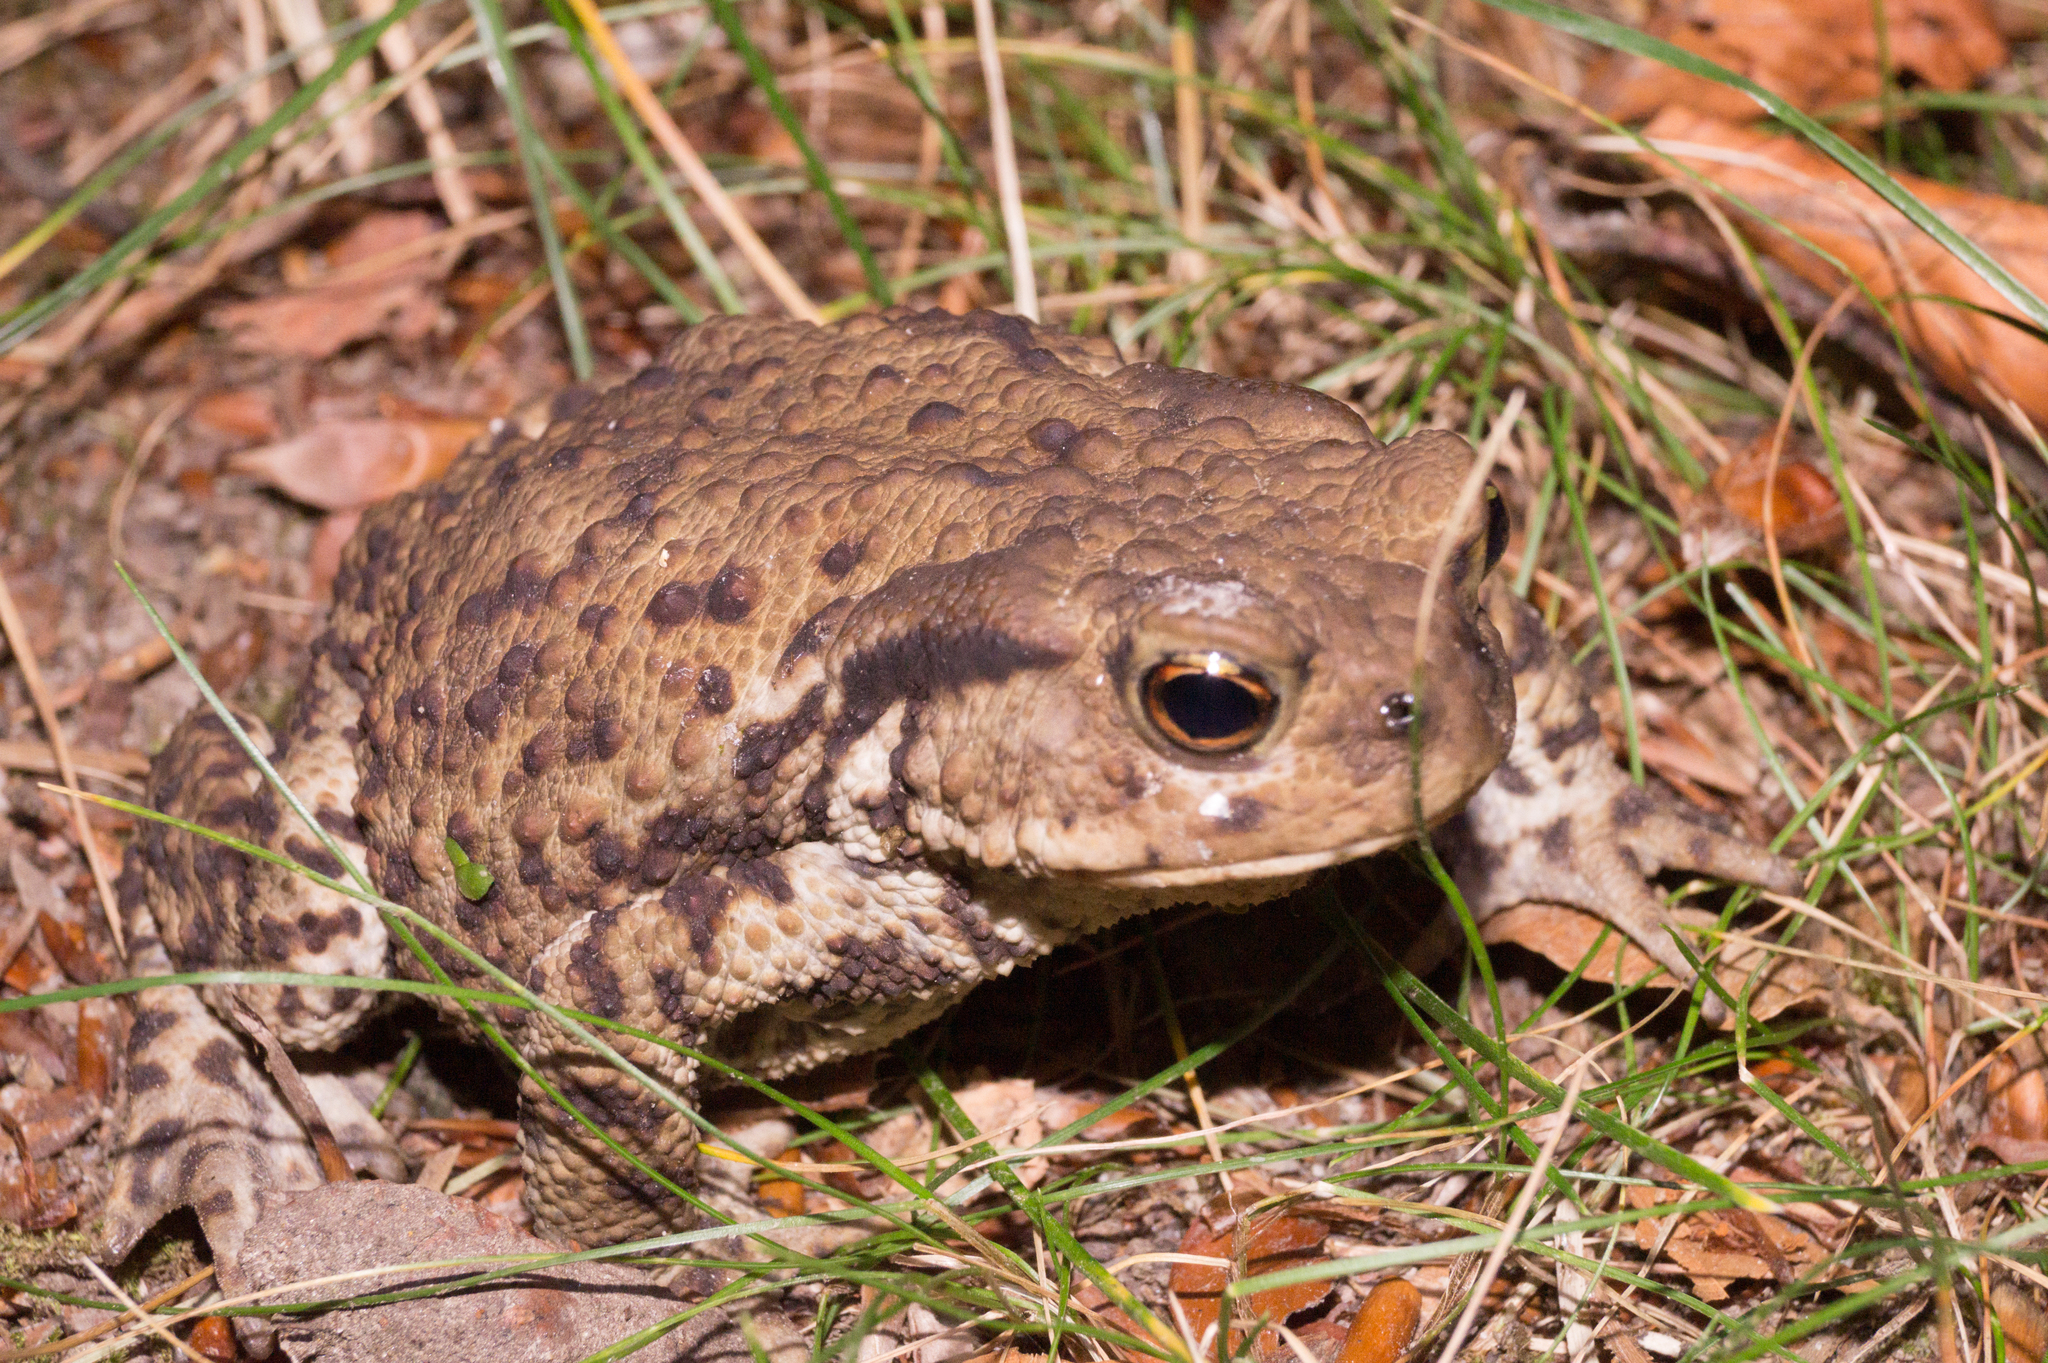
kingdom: Animalia
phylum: Chordata
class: Amphibia
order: Anura
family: Bufonidae
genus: Bufo
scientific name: Bufo bufo
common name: Common toad
